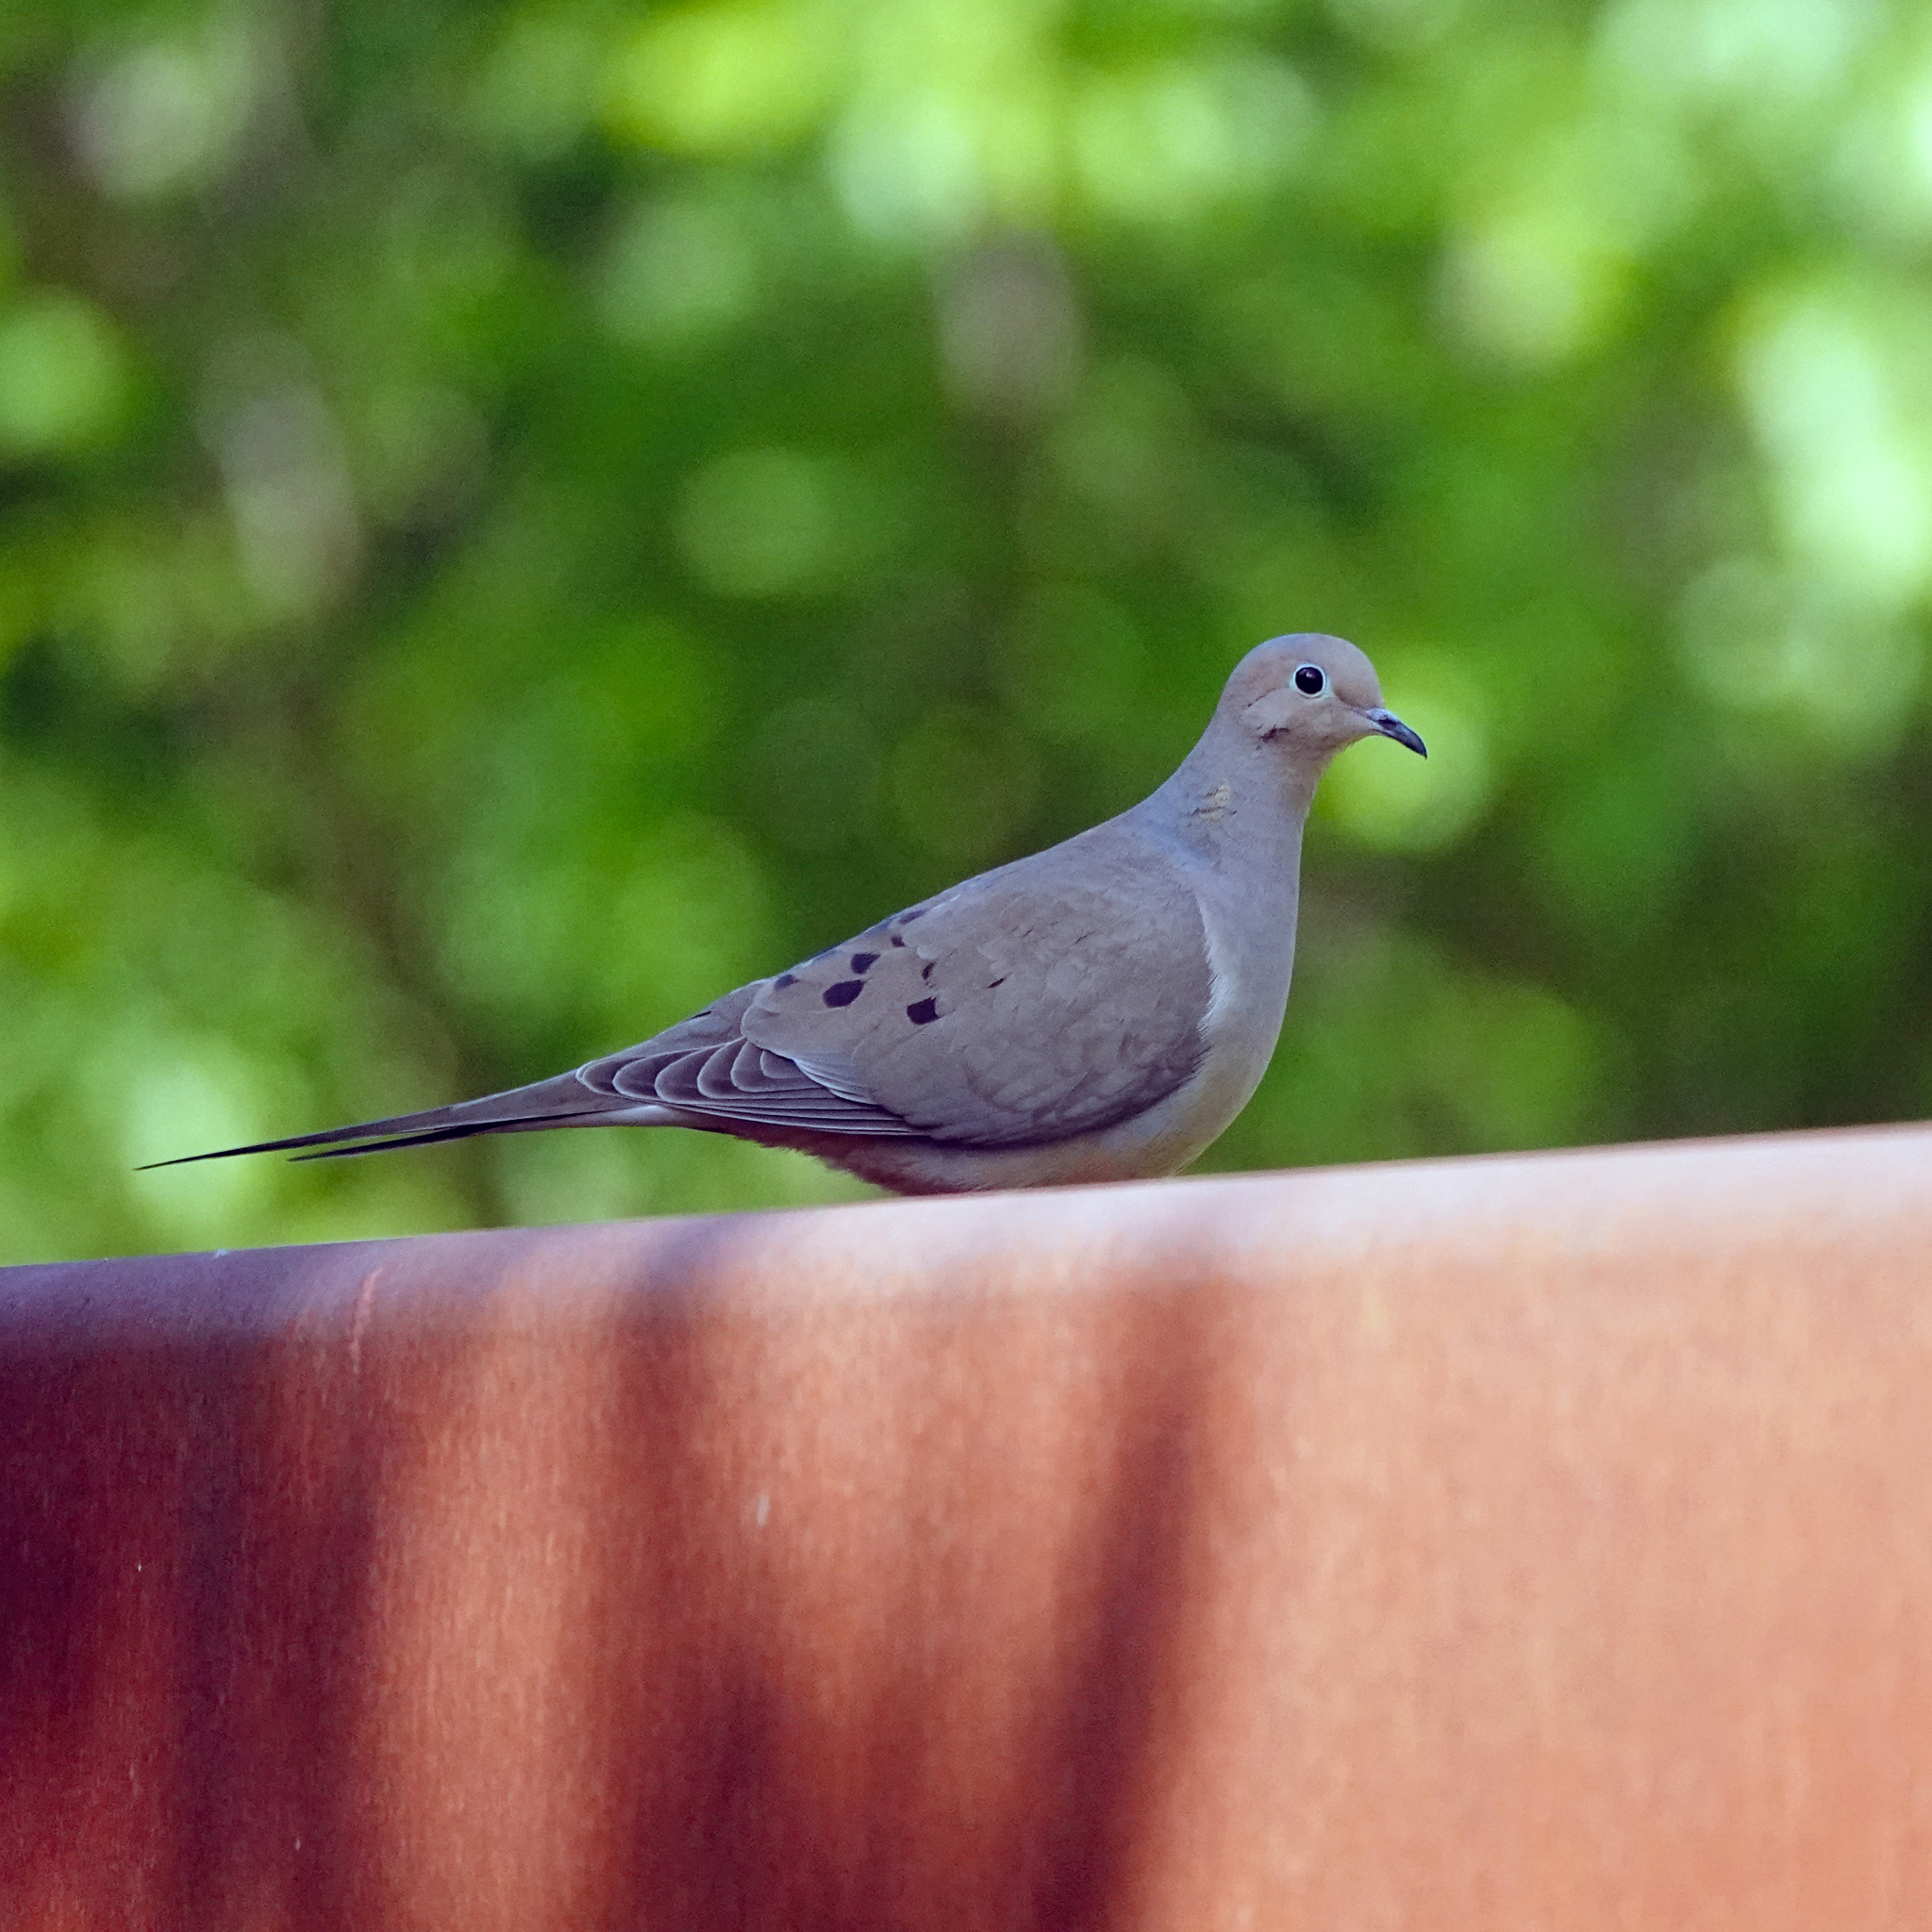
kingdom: Animalia
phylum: Chordata
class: Aves
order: Columbiformes
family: Columbidae
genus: Zenaida
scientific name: Zenaida macroura
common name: Mourning dove
